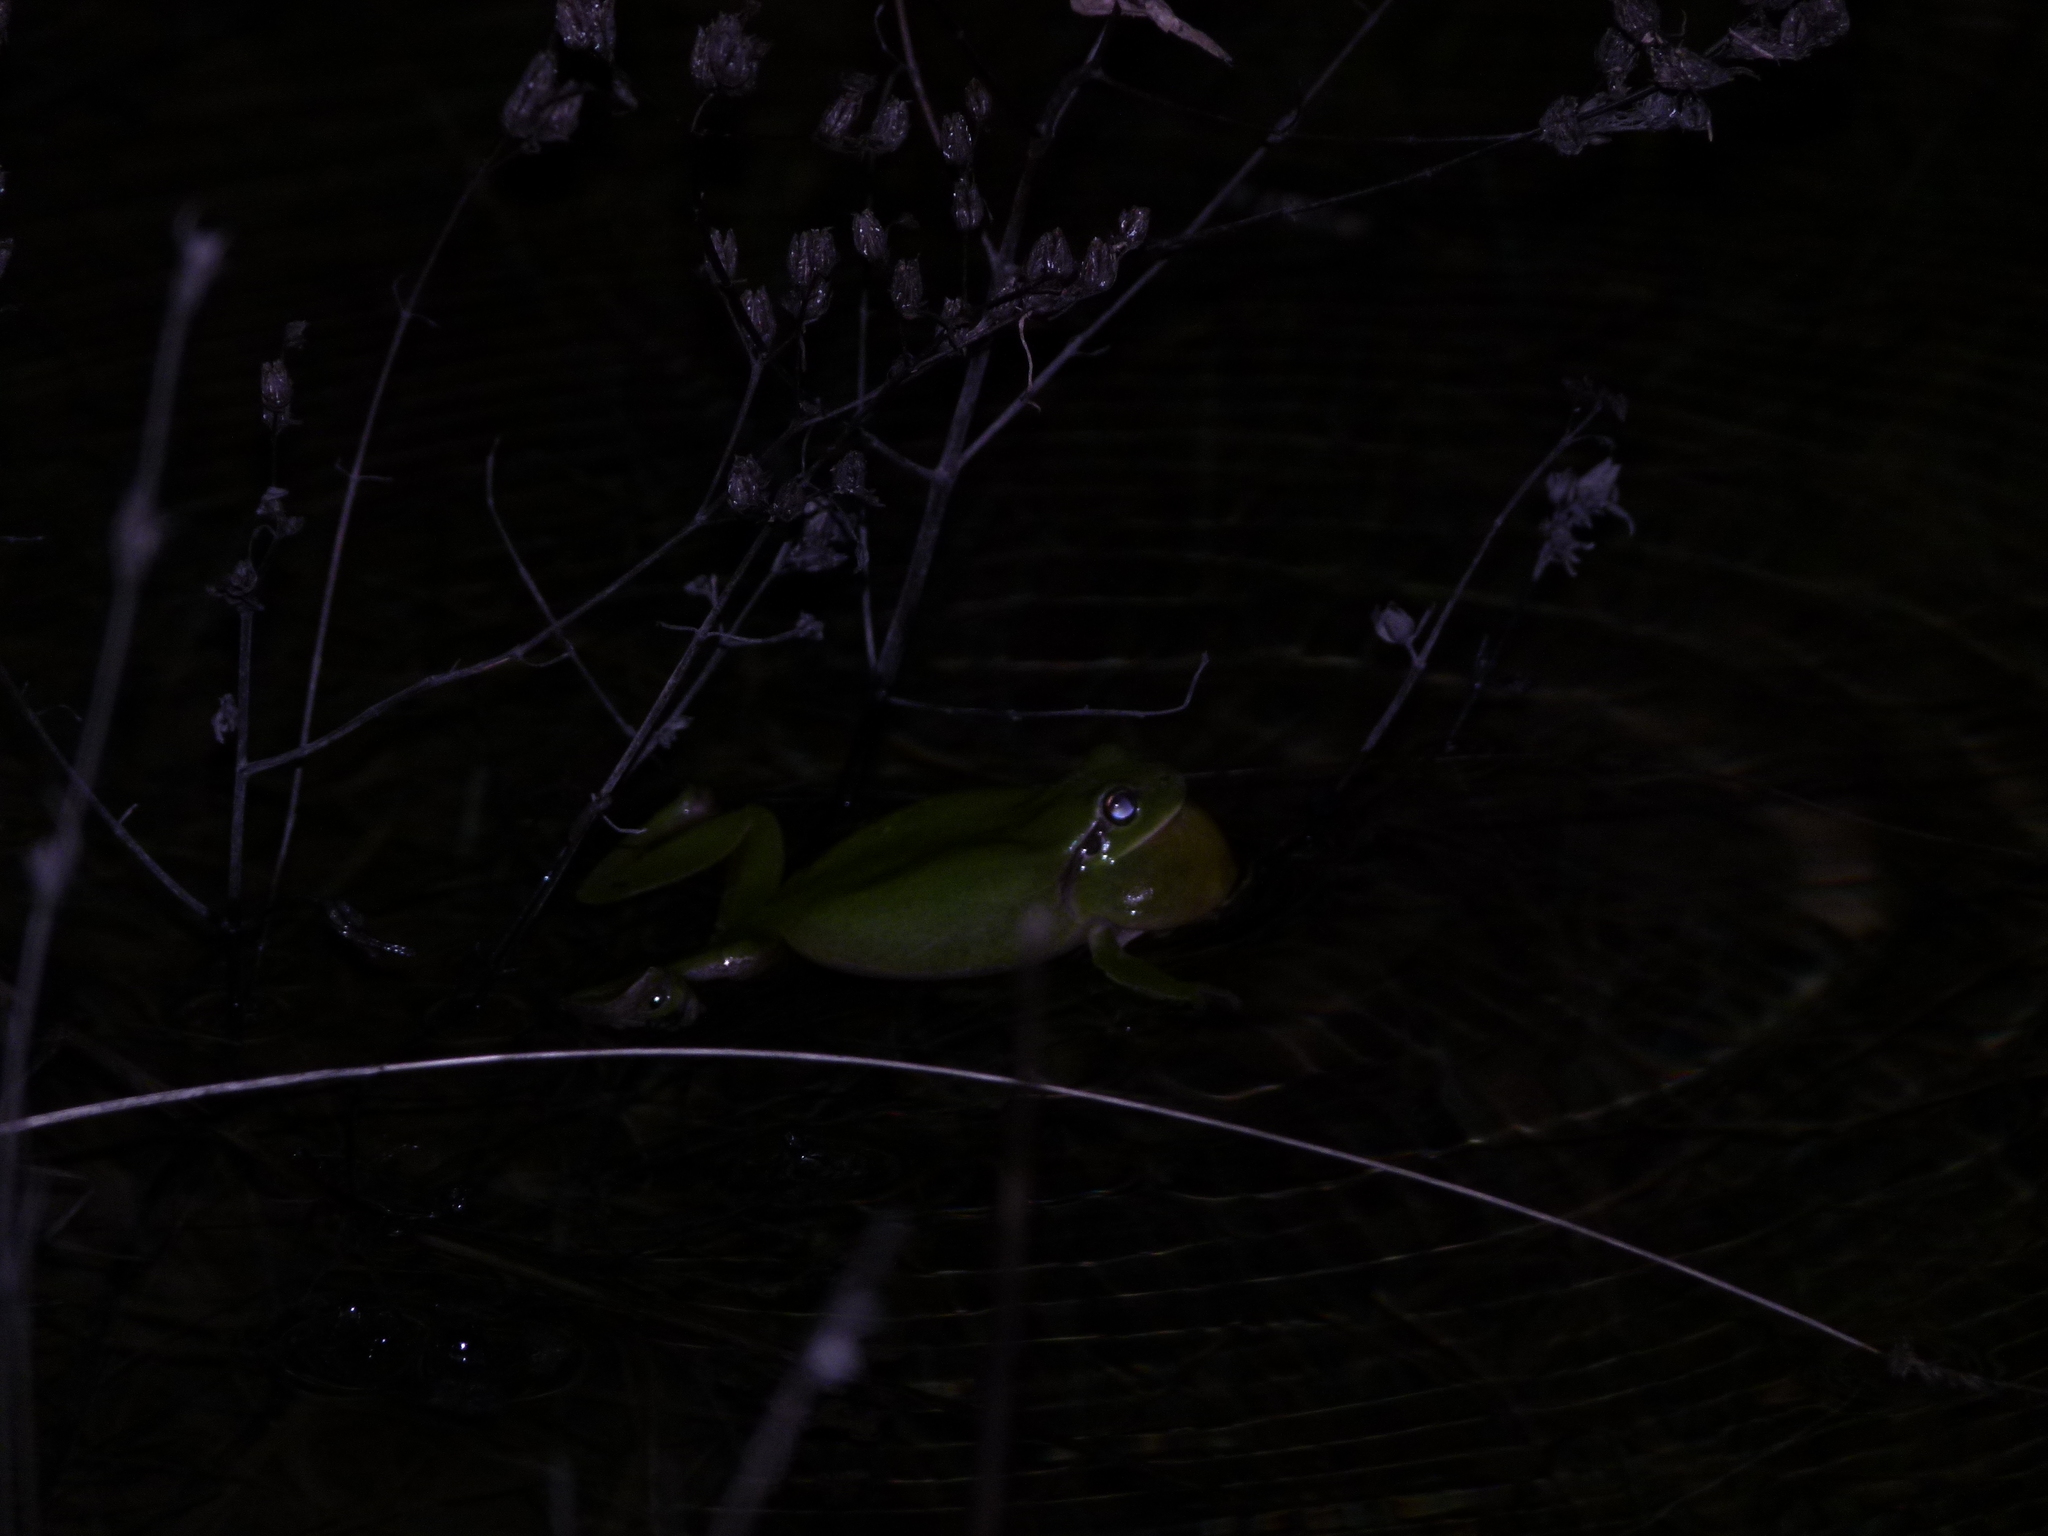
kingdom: Animalia
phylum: Chordata
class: Amphibia
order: Anura
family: Hylidae
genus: Hyla
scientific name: Hyla meridionalis
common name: Stripeless tree frog
